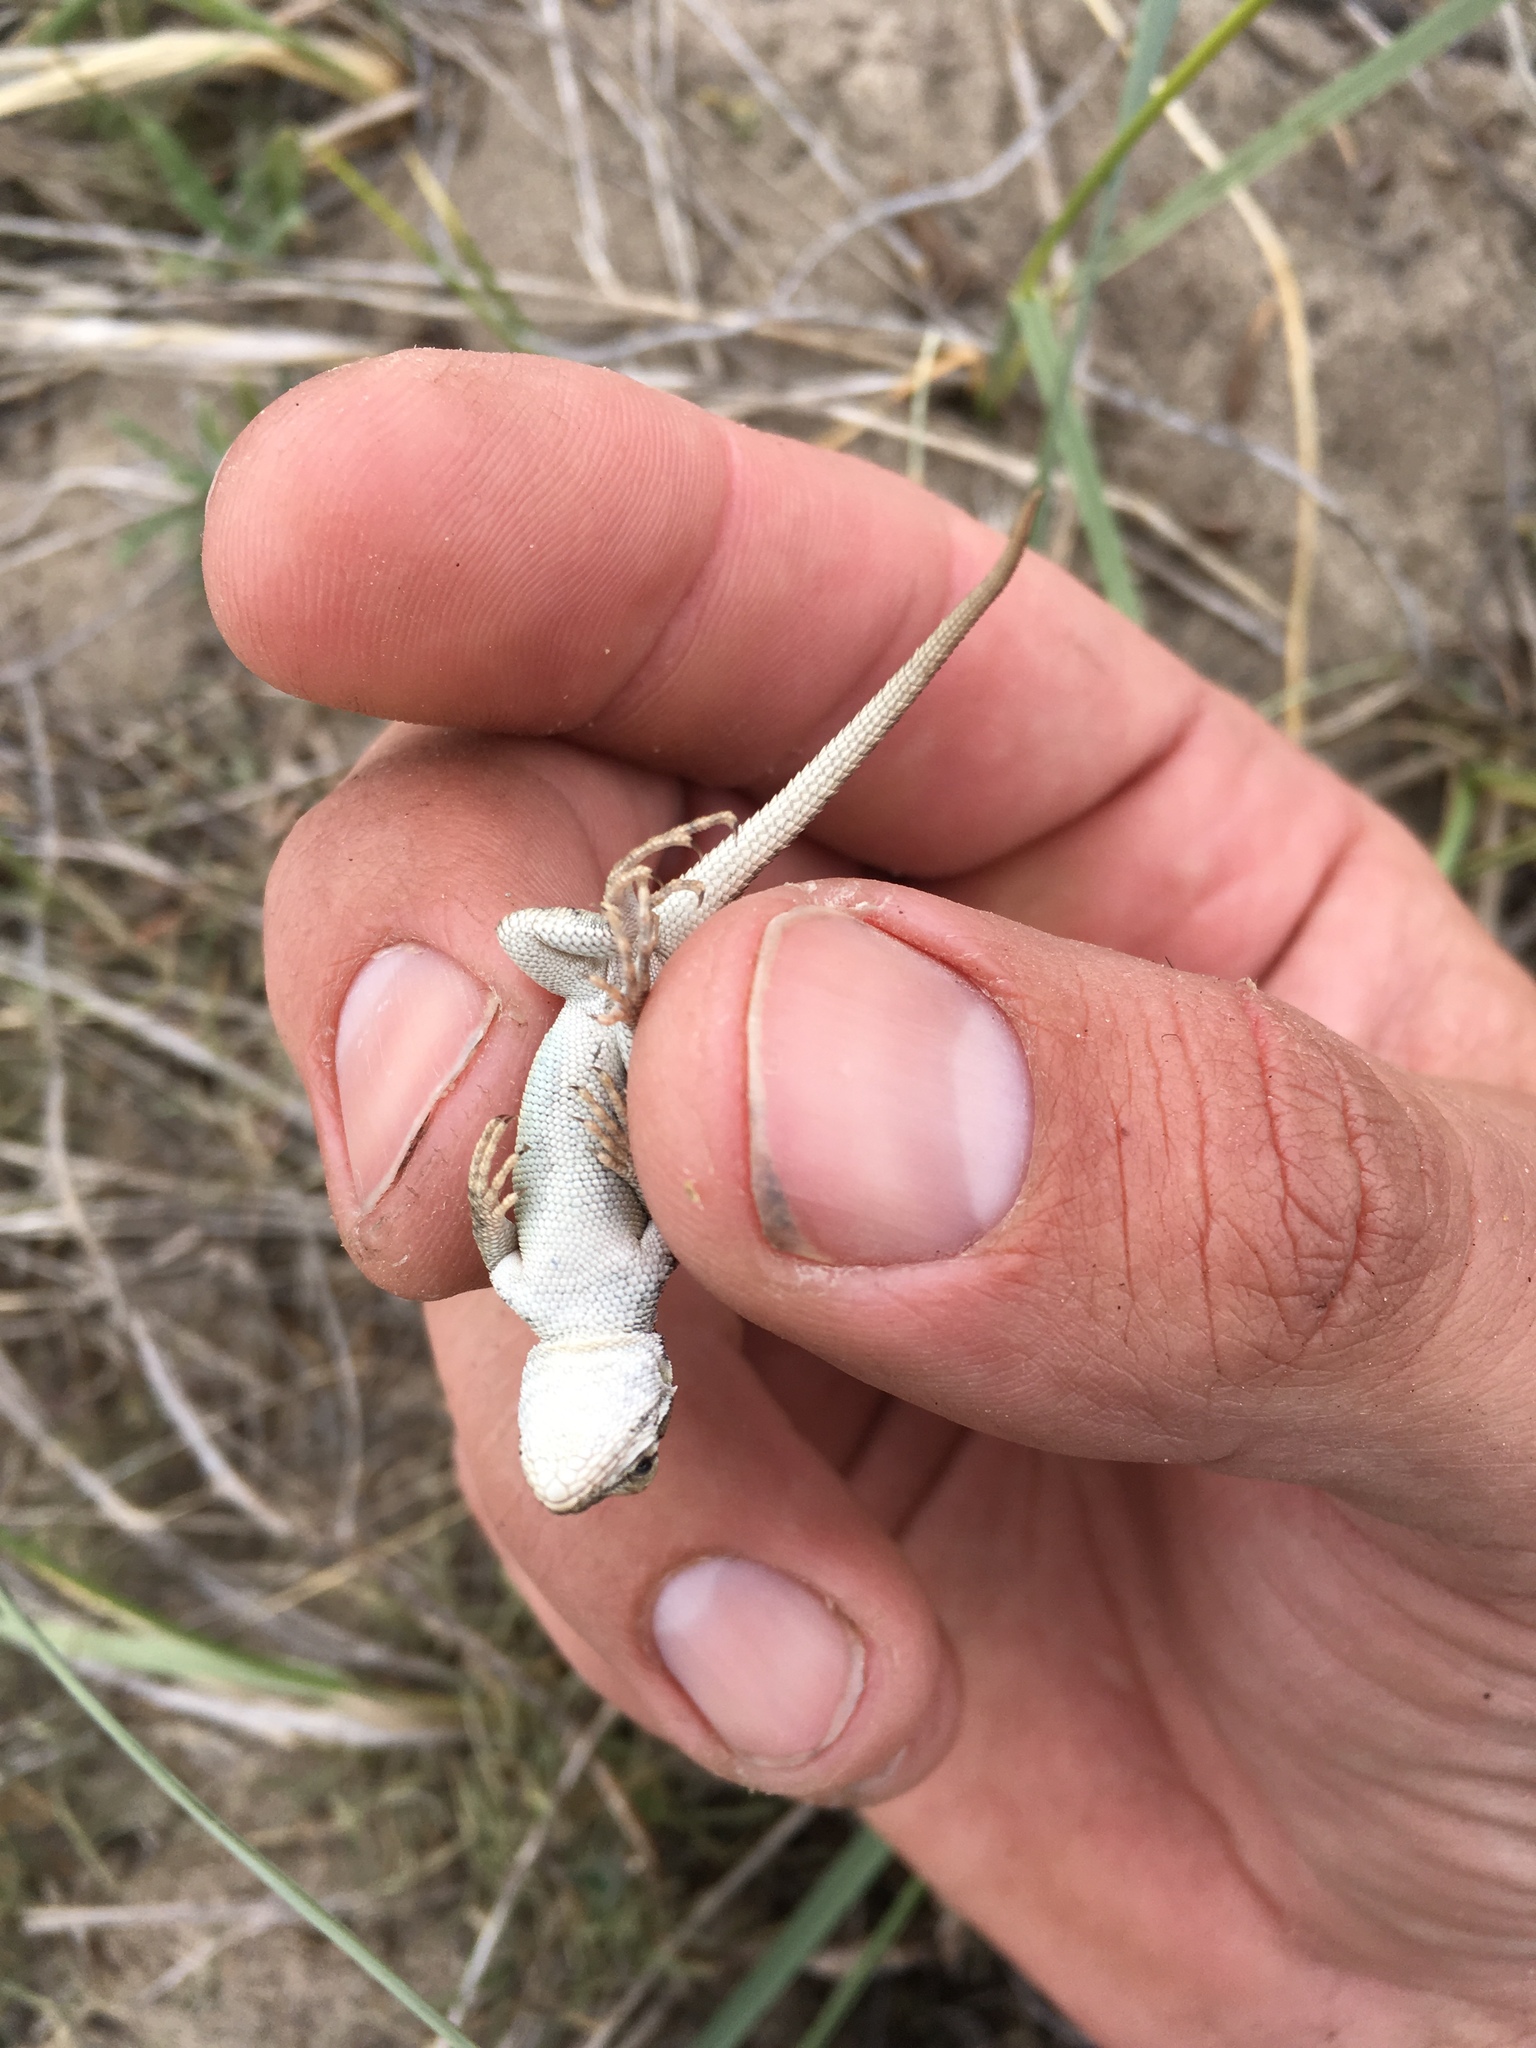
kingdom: Animalia
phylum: Chordata
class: Squamata
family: Phrynosomatidae
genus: Sceloporus
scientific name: Sceloporus graciosus
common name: Sagebrush lizard
